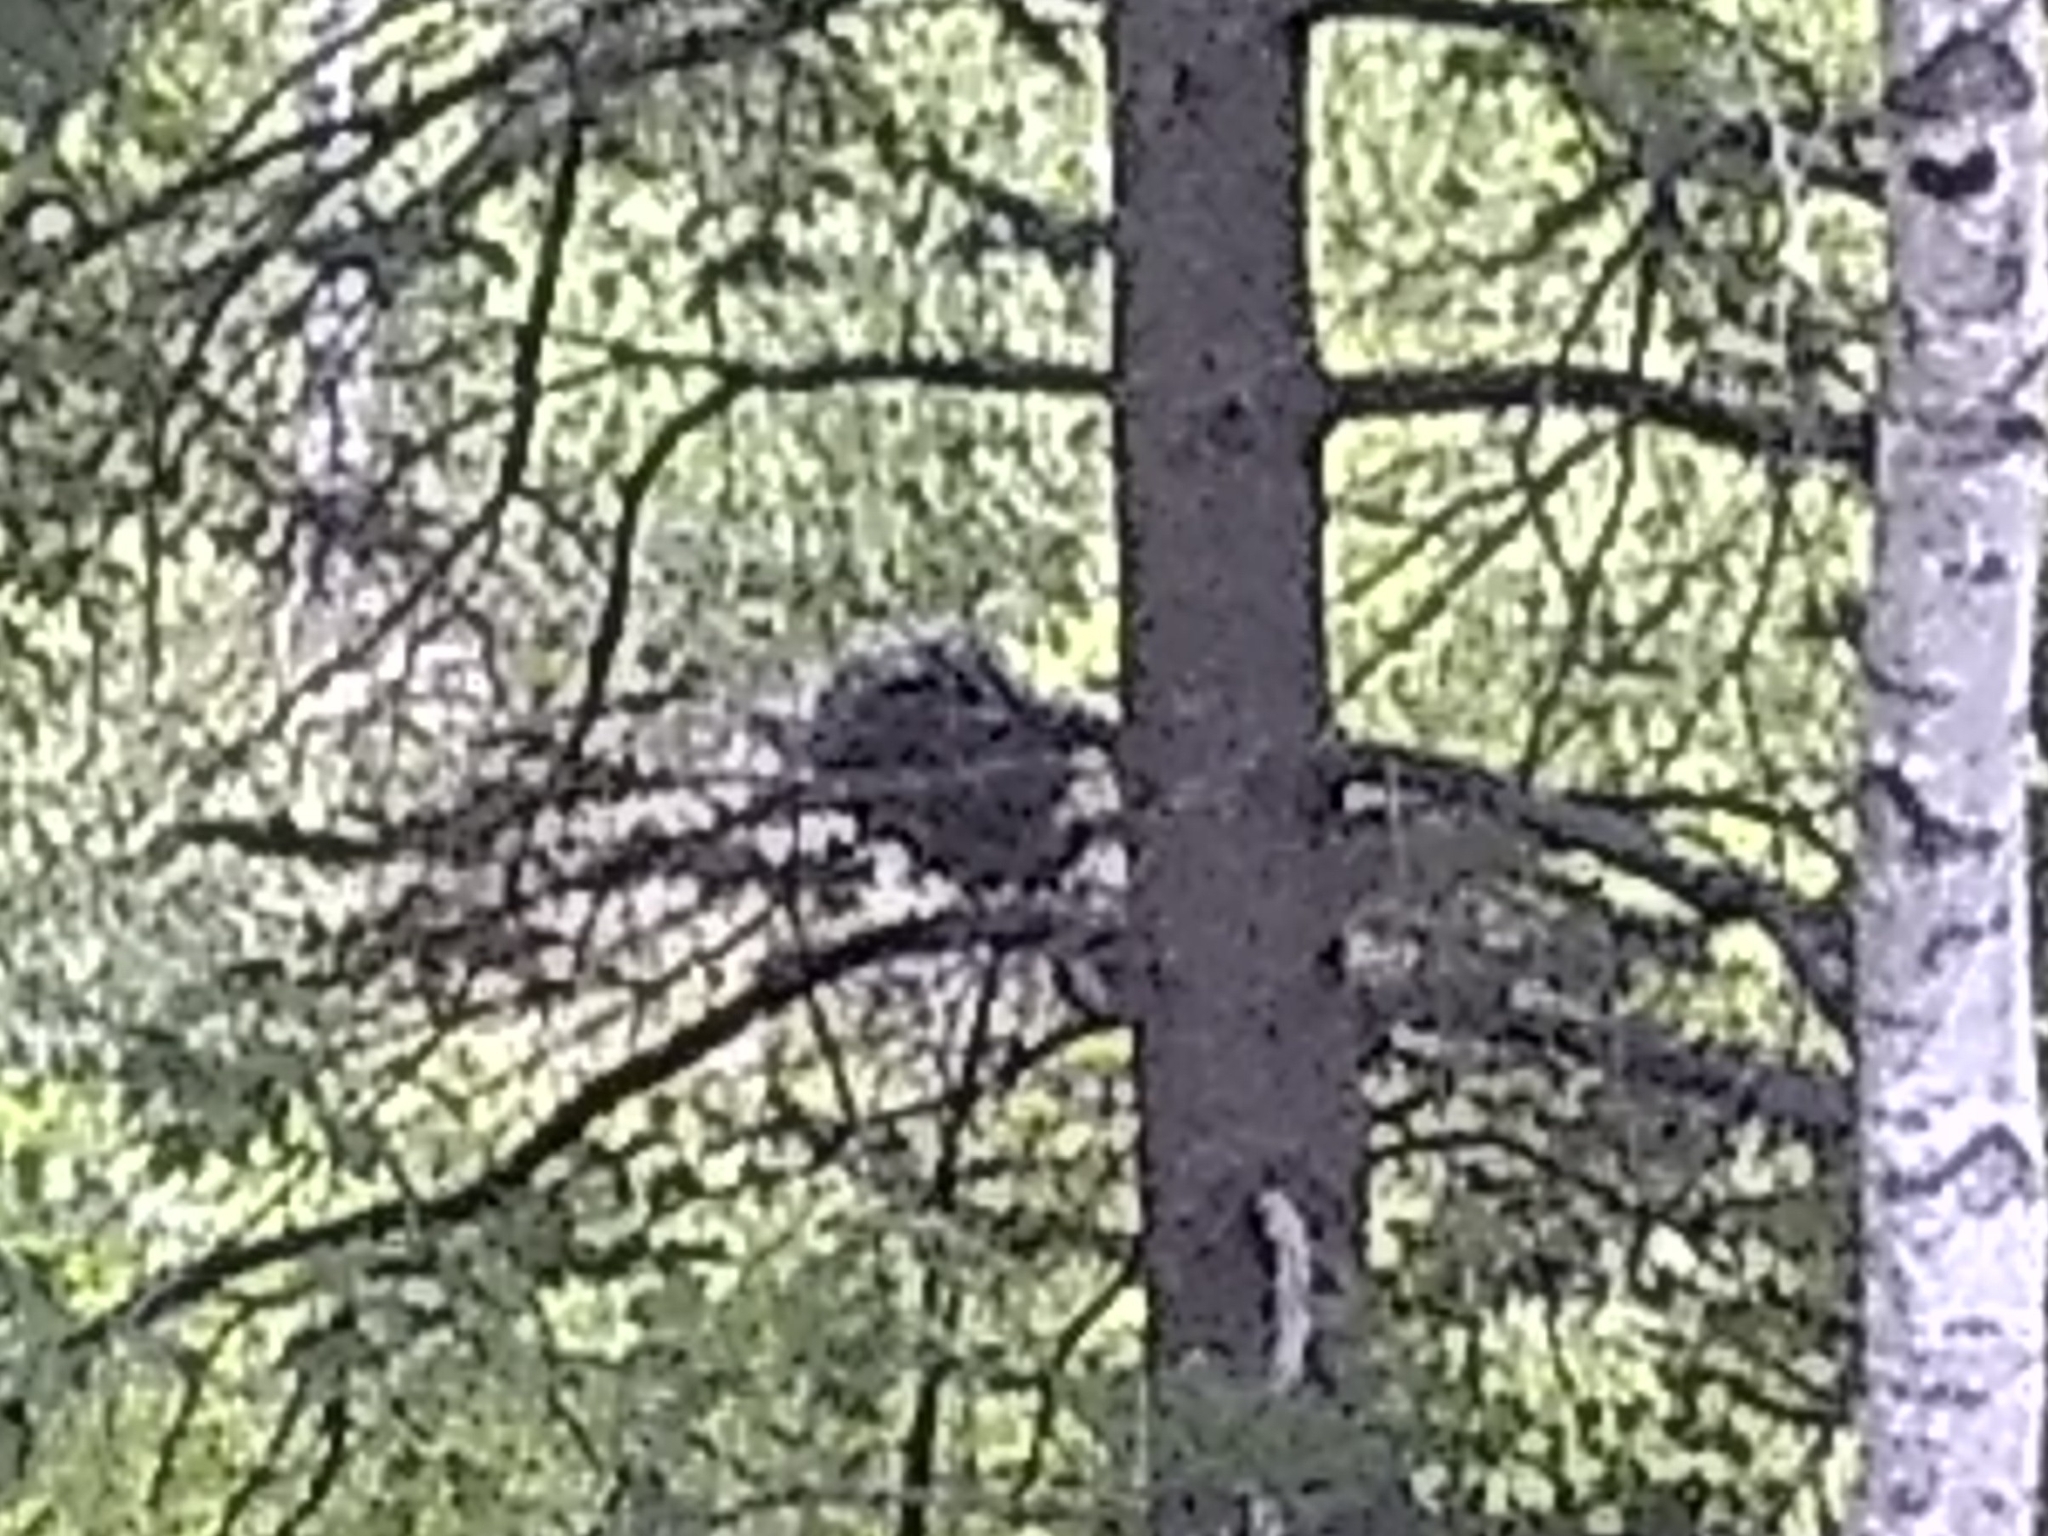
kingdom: Animalia
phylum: Chordata
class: Mammalia
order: Rodentia
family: Erethizontidae
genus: Erethizon
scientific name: Erethizon dorsatus
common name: North american porcupine
